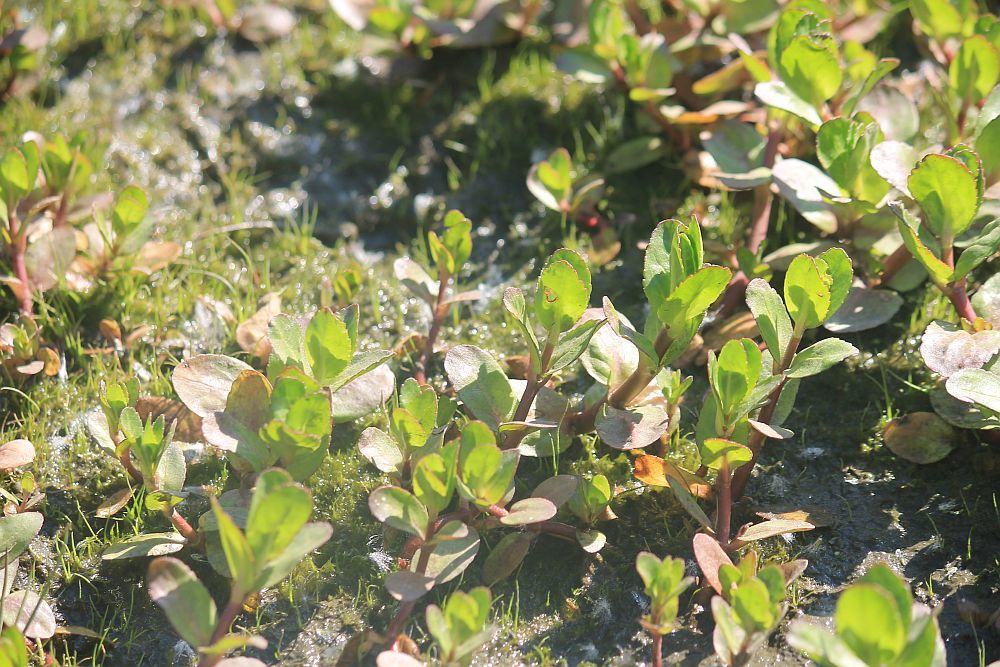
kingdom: Plantae
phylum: Tracheophyta
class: Magnoliopsida
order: Lamiales
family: Plantaginaceae
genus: Veronica
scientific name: Veronica beccabunga
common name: Brooklime
